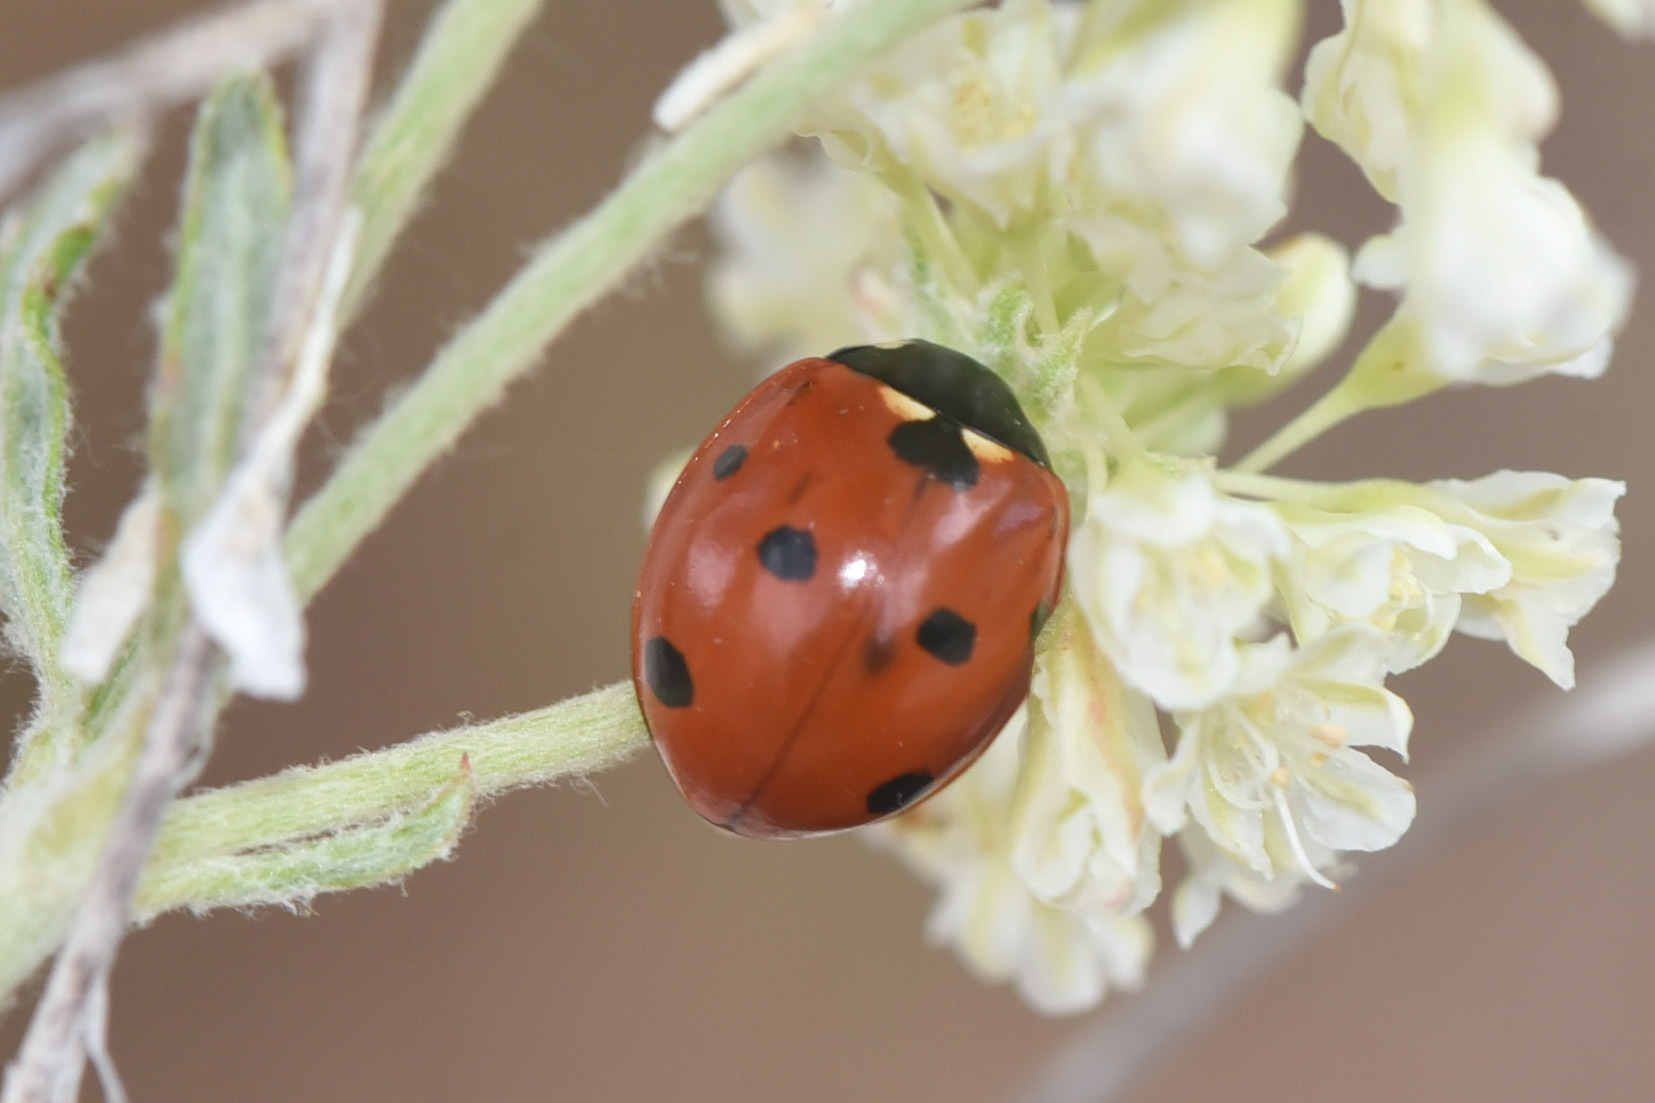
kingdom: Animalia
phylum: Arthropoda
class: Insecta
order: Coleoptera
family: Coccinellidae
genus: Coccinella
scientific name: Coccinella septempunctata
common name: Sevenspotted lady beetle
